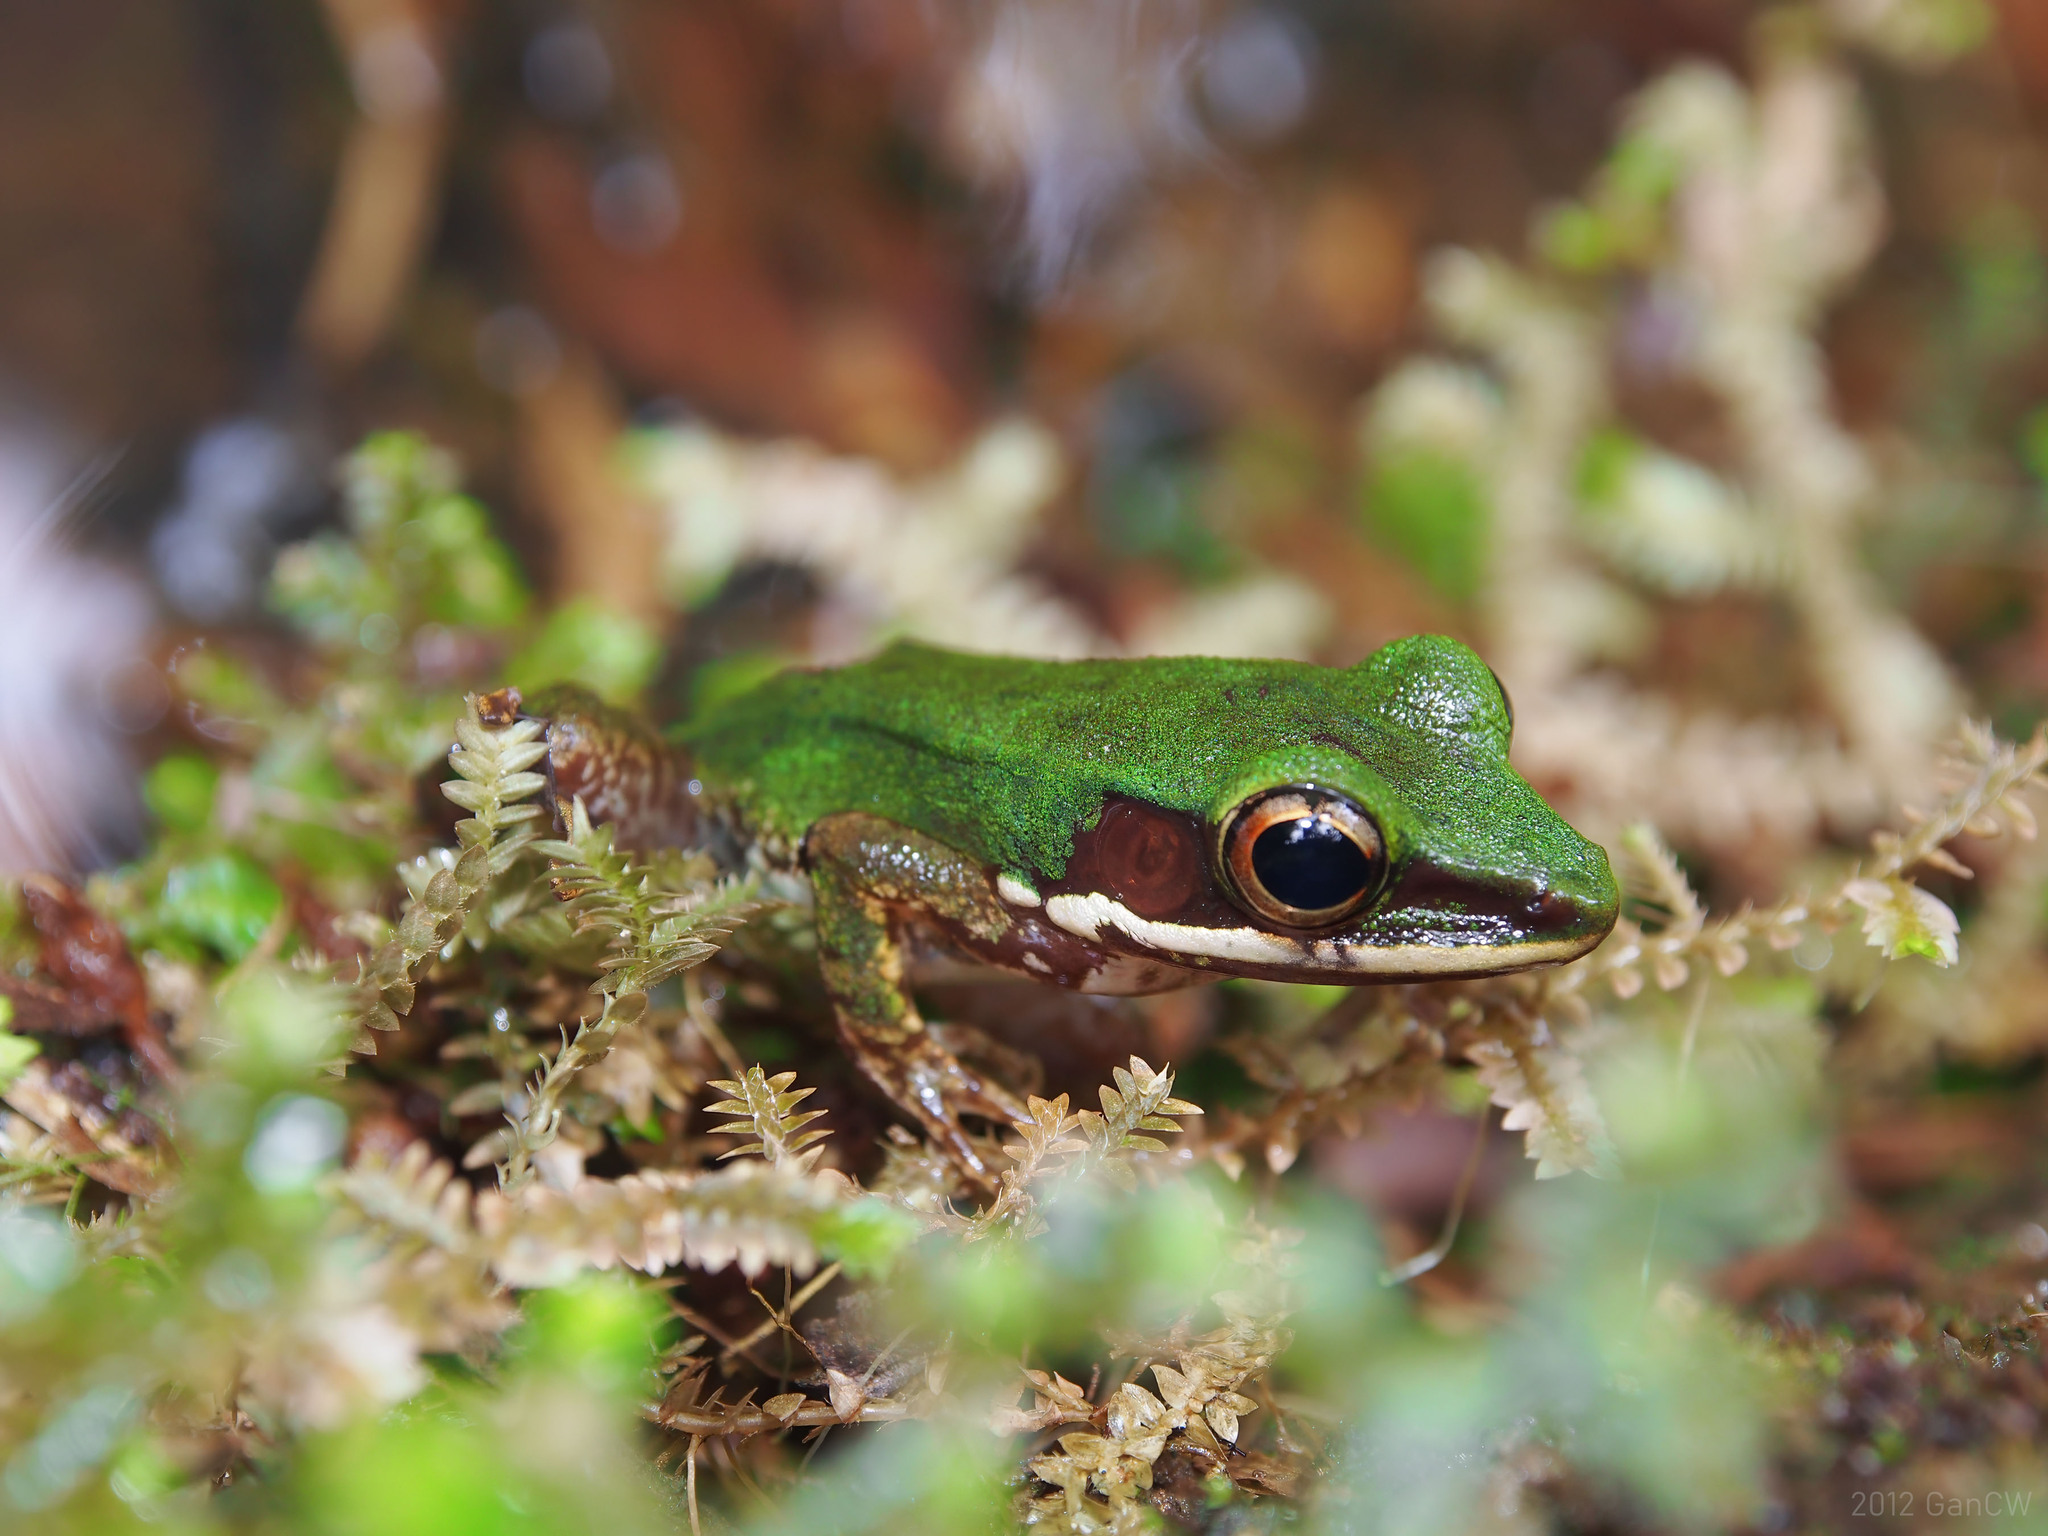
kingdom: Animalia
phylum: Chordata
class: Amphibia
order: Anura
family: Ranidae
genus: Chalcorana
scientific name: Chalcorana labialis
